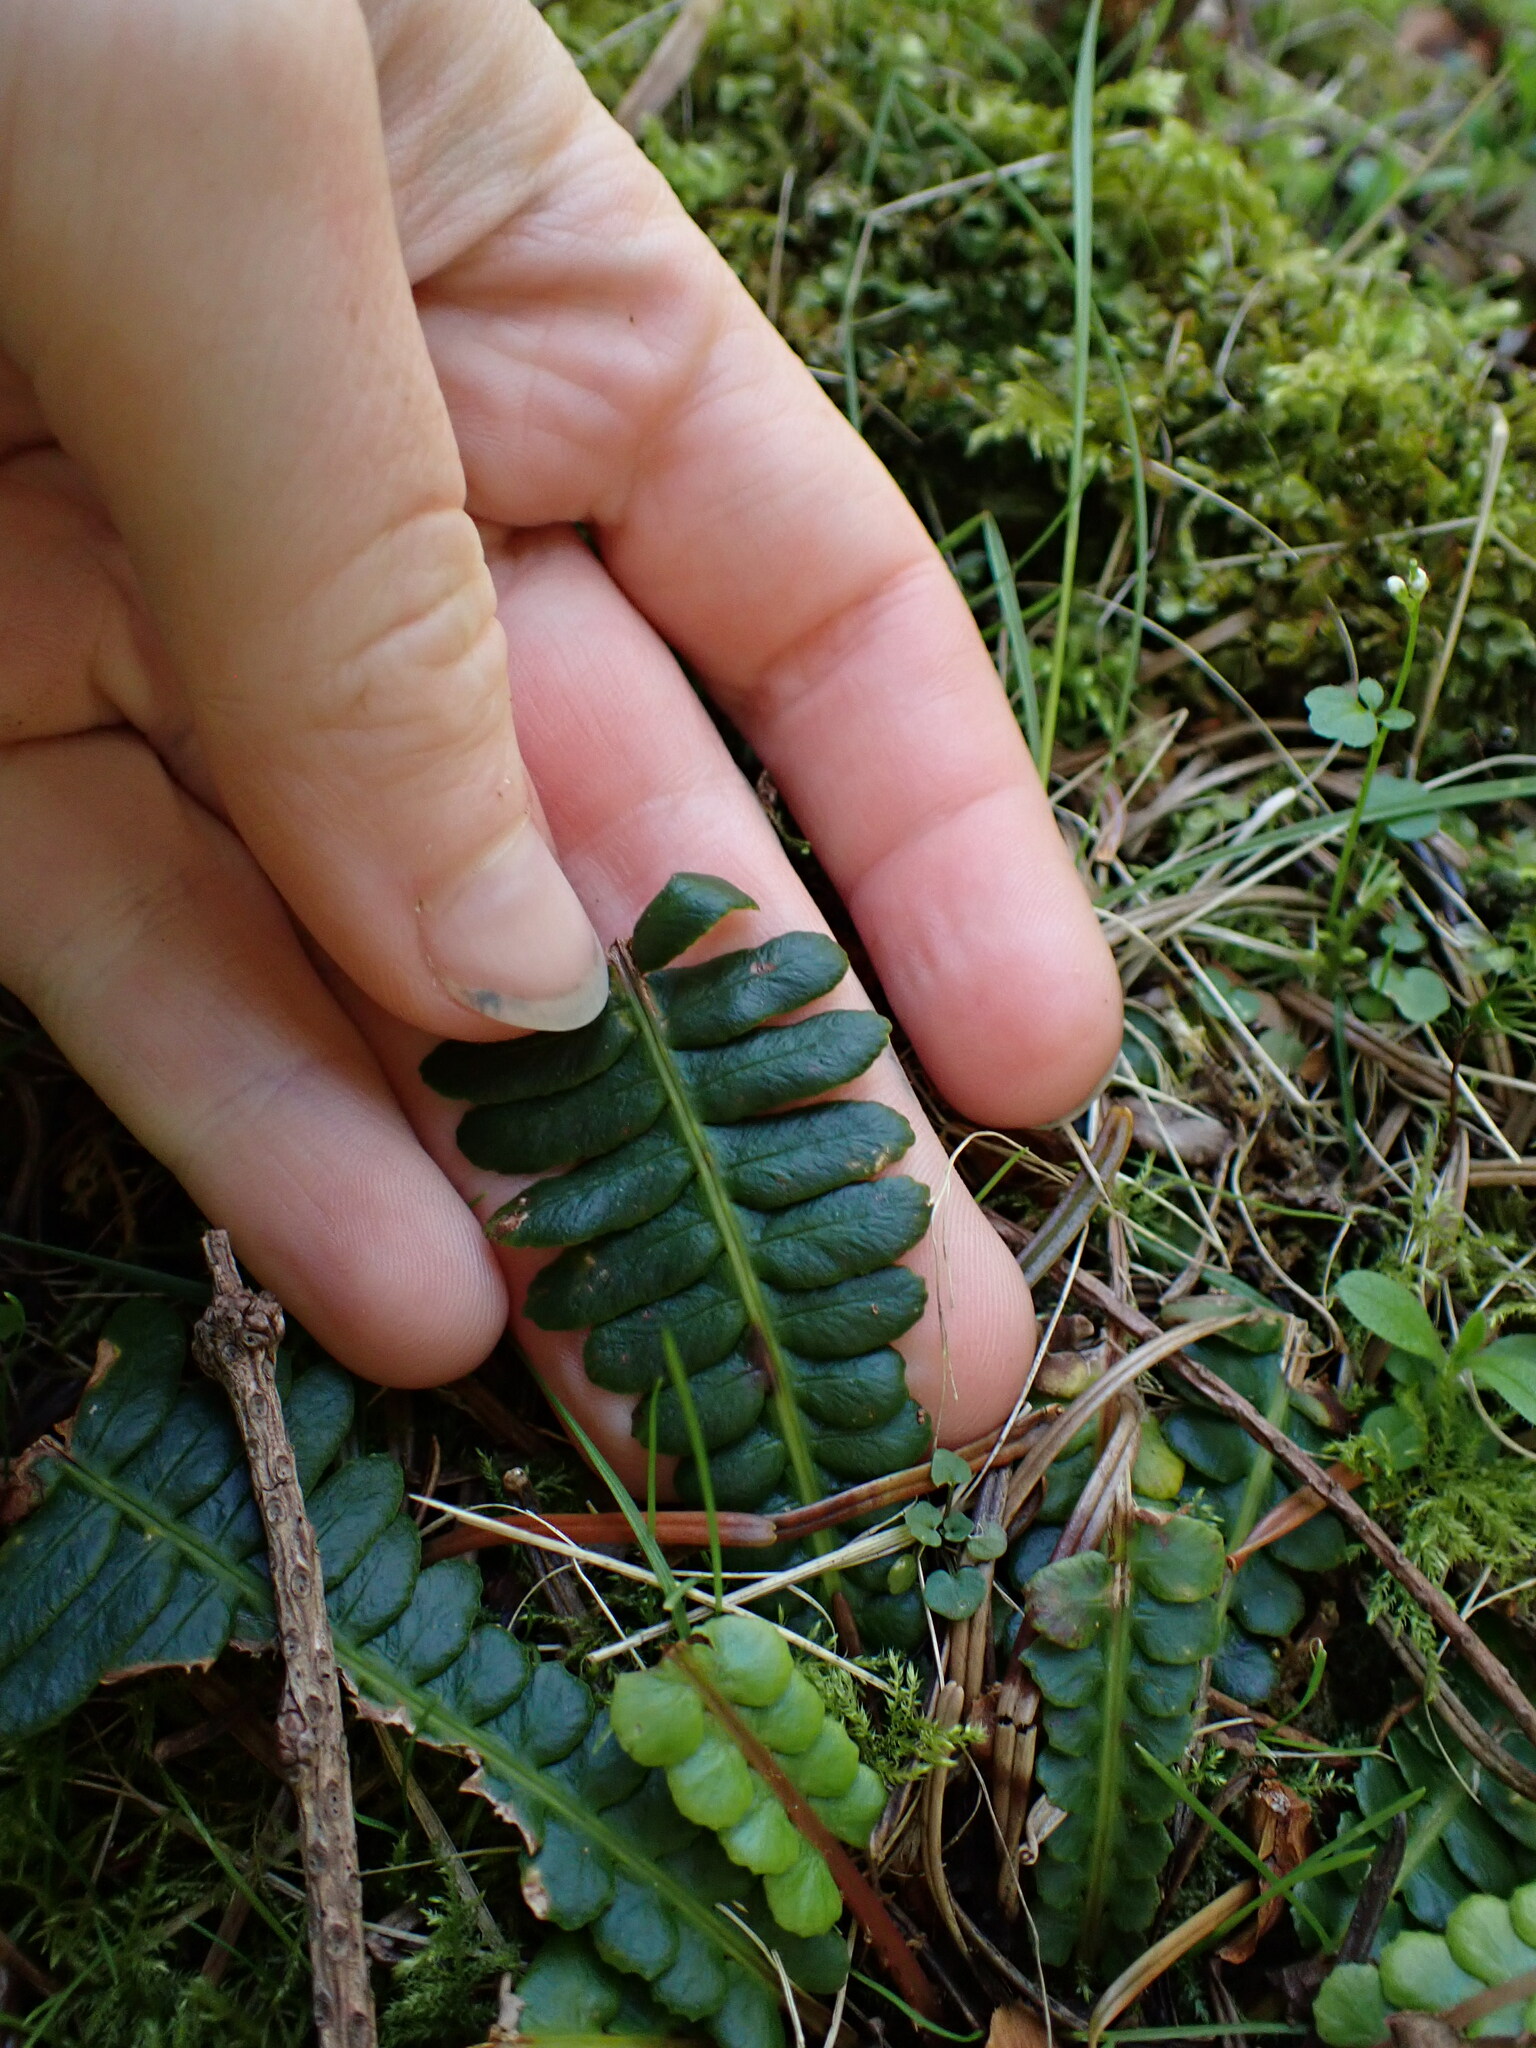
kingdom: Plantae
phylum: Tracheophyta
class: Polypodiopsida
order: Polypodiales
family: Blechnaceae
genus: Struthiopteris
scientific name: Struthiopteris spicant
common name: Deer fern
